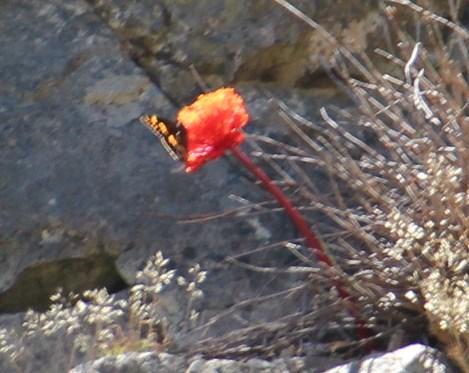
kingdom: Animalia
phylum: Arthropoda
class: Insecta
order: Lepidoptera
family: Nymphalidae
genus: Meneris
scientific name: Meneris Aeropetes tulbaghia
